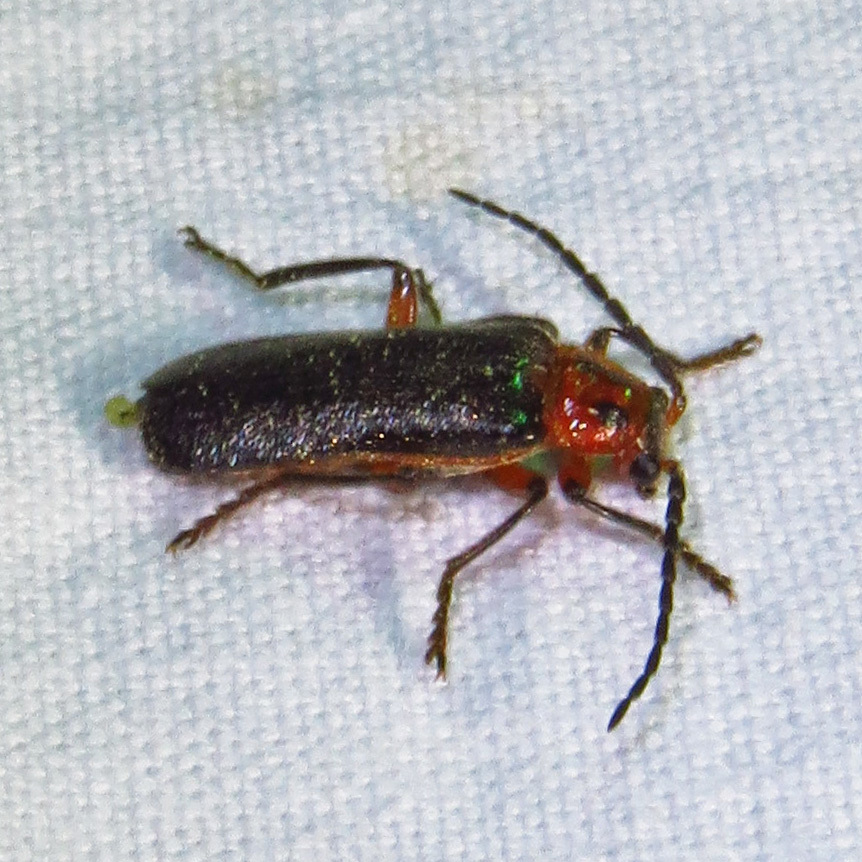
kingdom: Animalia
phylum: Arthropoda
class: Insecta
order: Coleoptera
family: Cantharidae
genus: Atalantycha
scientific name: Atalantycha bilineata
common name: Two-lined leatherwing
